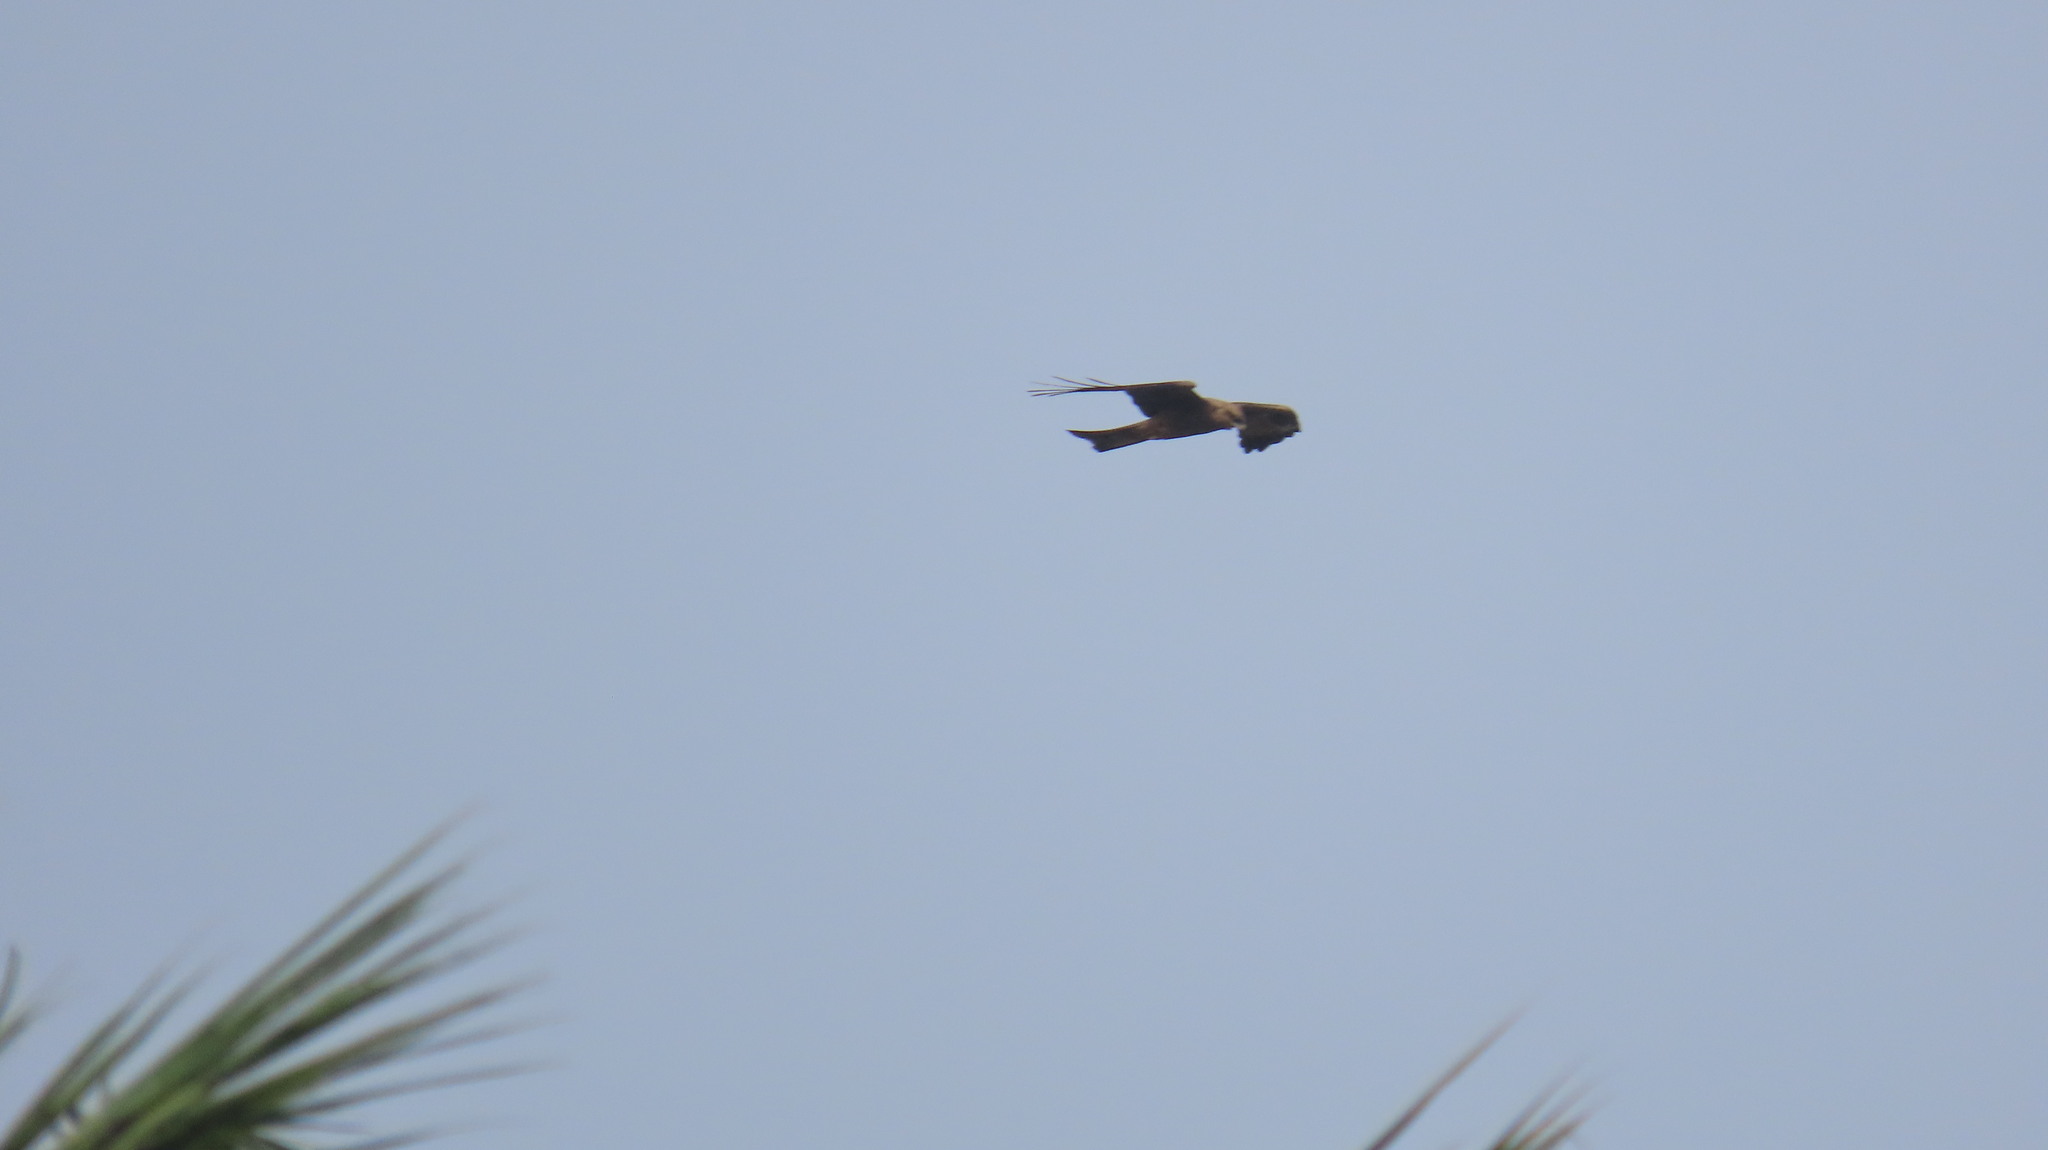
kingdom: Animalia
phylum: Chordata
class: Aves
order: Accipitriformes
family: Accipitridae
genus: Milvus
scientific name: Milvus migrans
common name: Black kite
